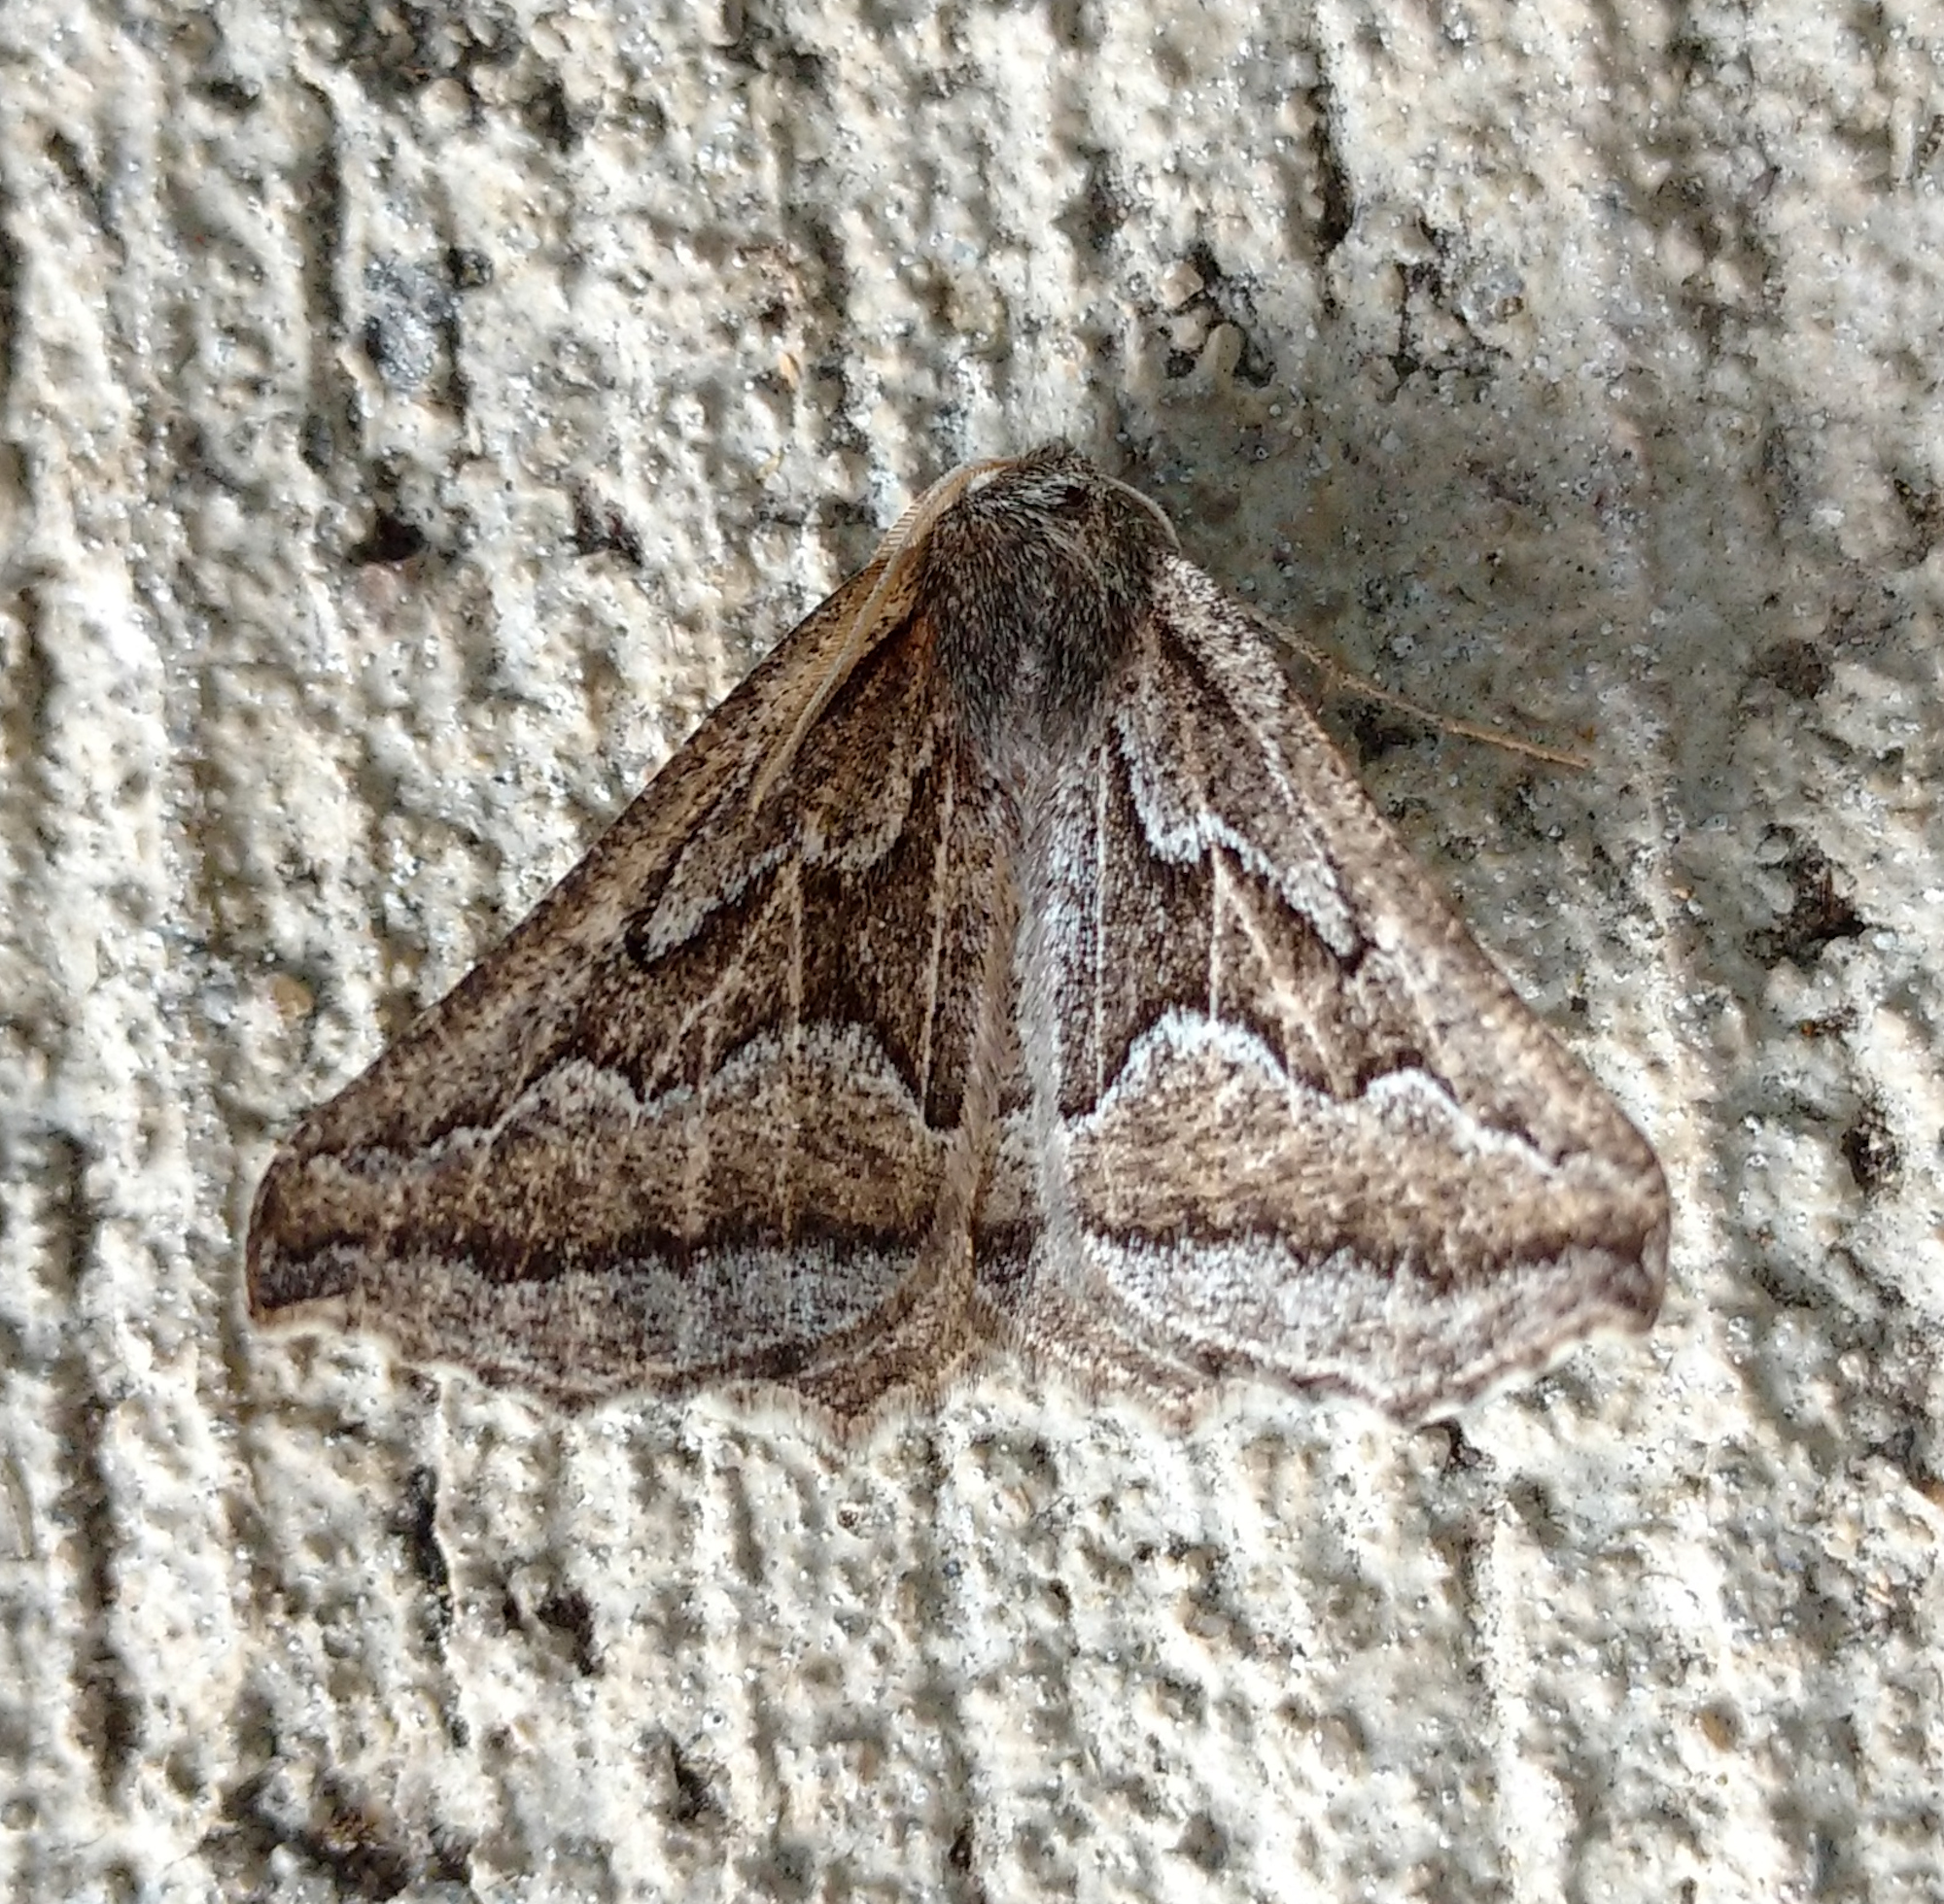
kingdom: Animalia
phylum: Arthropoda
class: Insecta
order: Lepidoptera
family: Geometridae
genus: Tetracis
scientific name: Tetracis formosa
